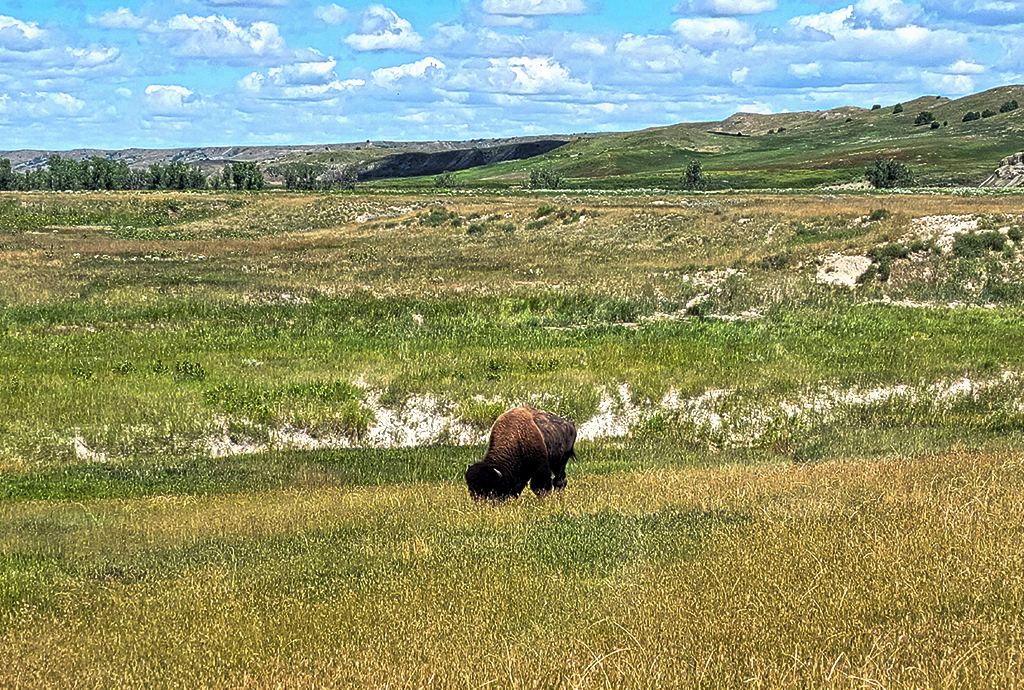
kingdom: Animalia
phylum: Chordata
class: Mammalia
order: Artiodactyla
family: Bovidae
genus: Bison
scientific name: Bison bison
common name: American bison
